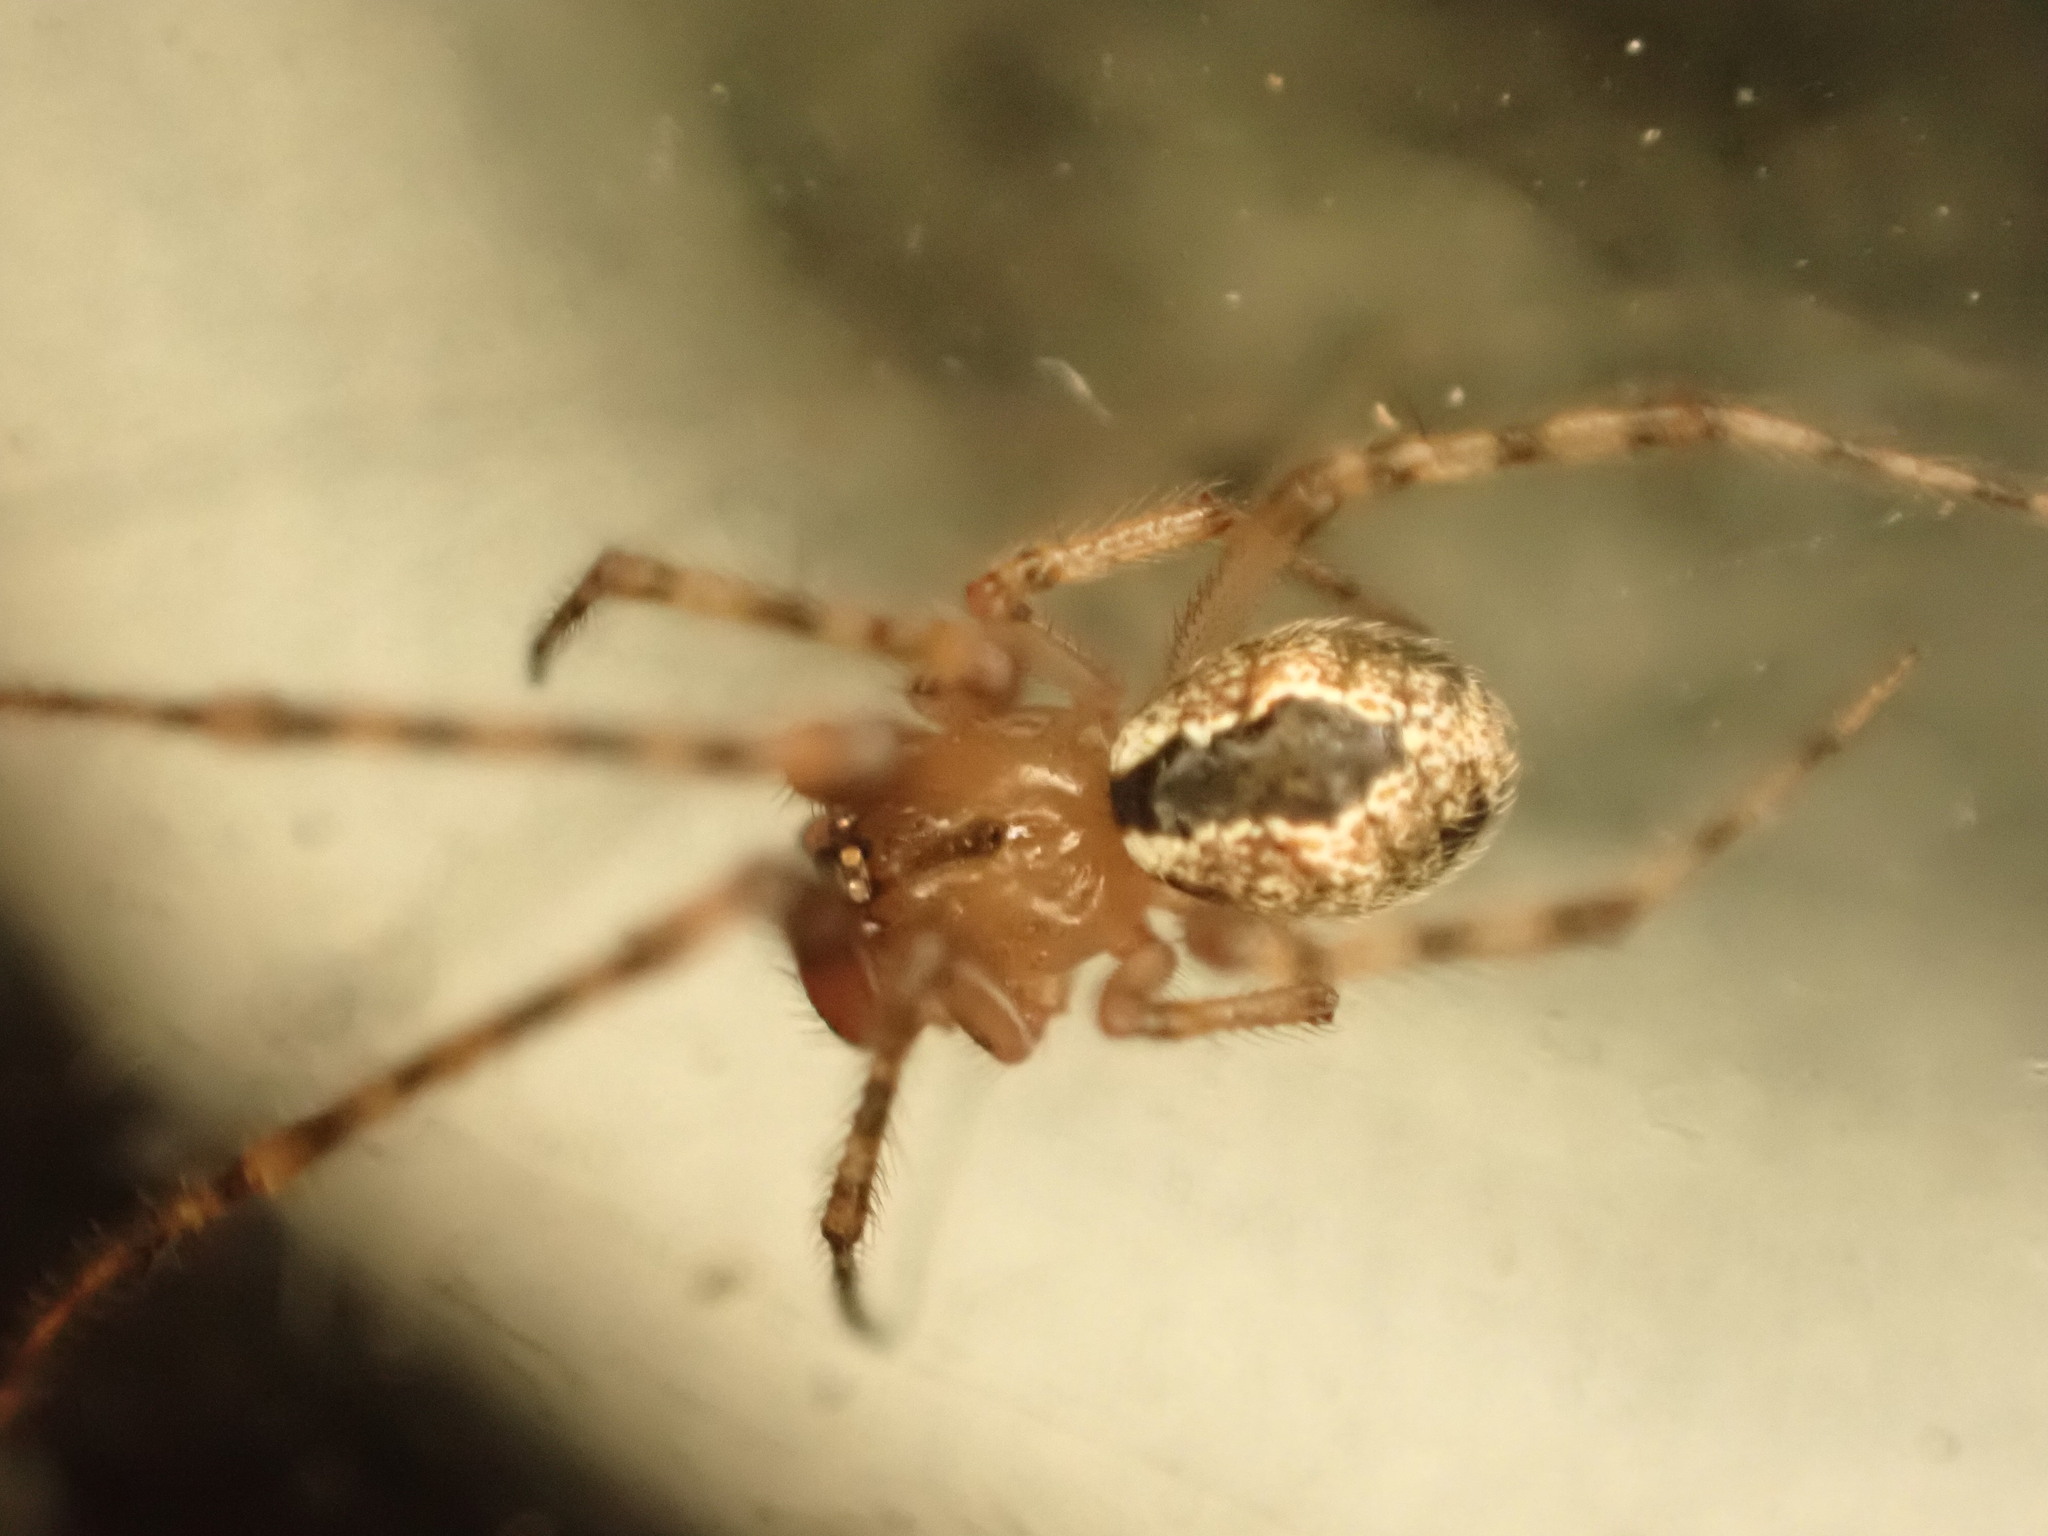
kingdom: Animalia
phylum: Arthropoda
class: Arachnida
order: Araneae
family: Theridiidae
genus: Cryptachaea
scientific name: Cryptachaea veruculata
